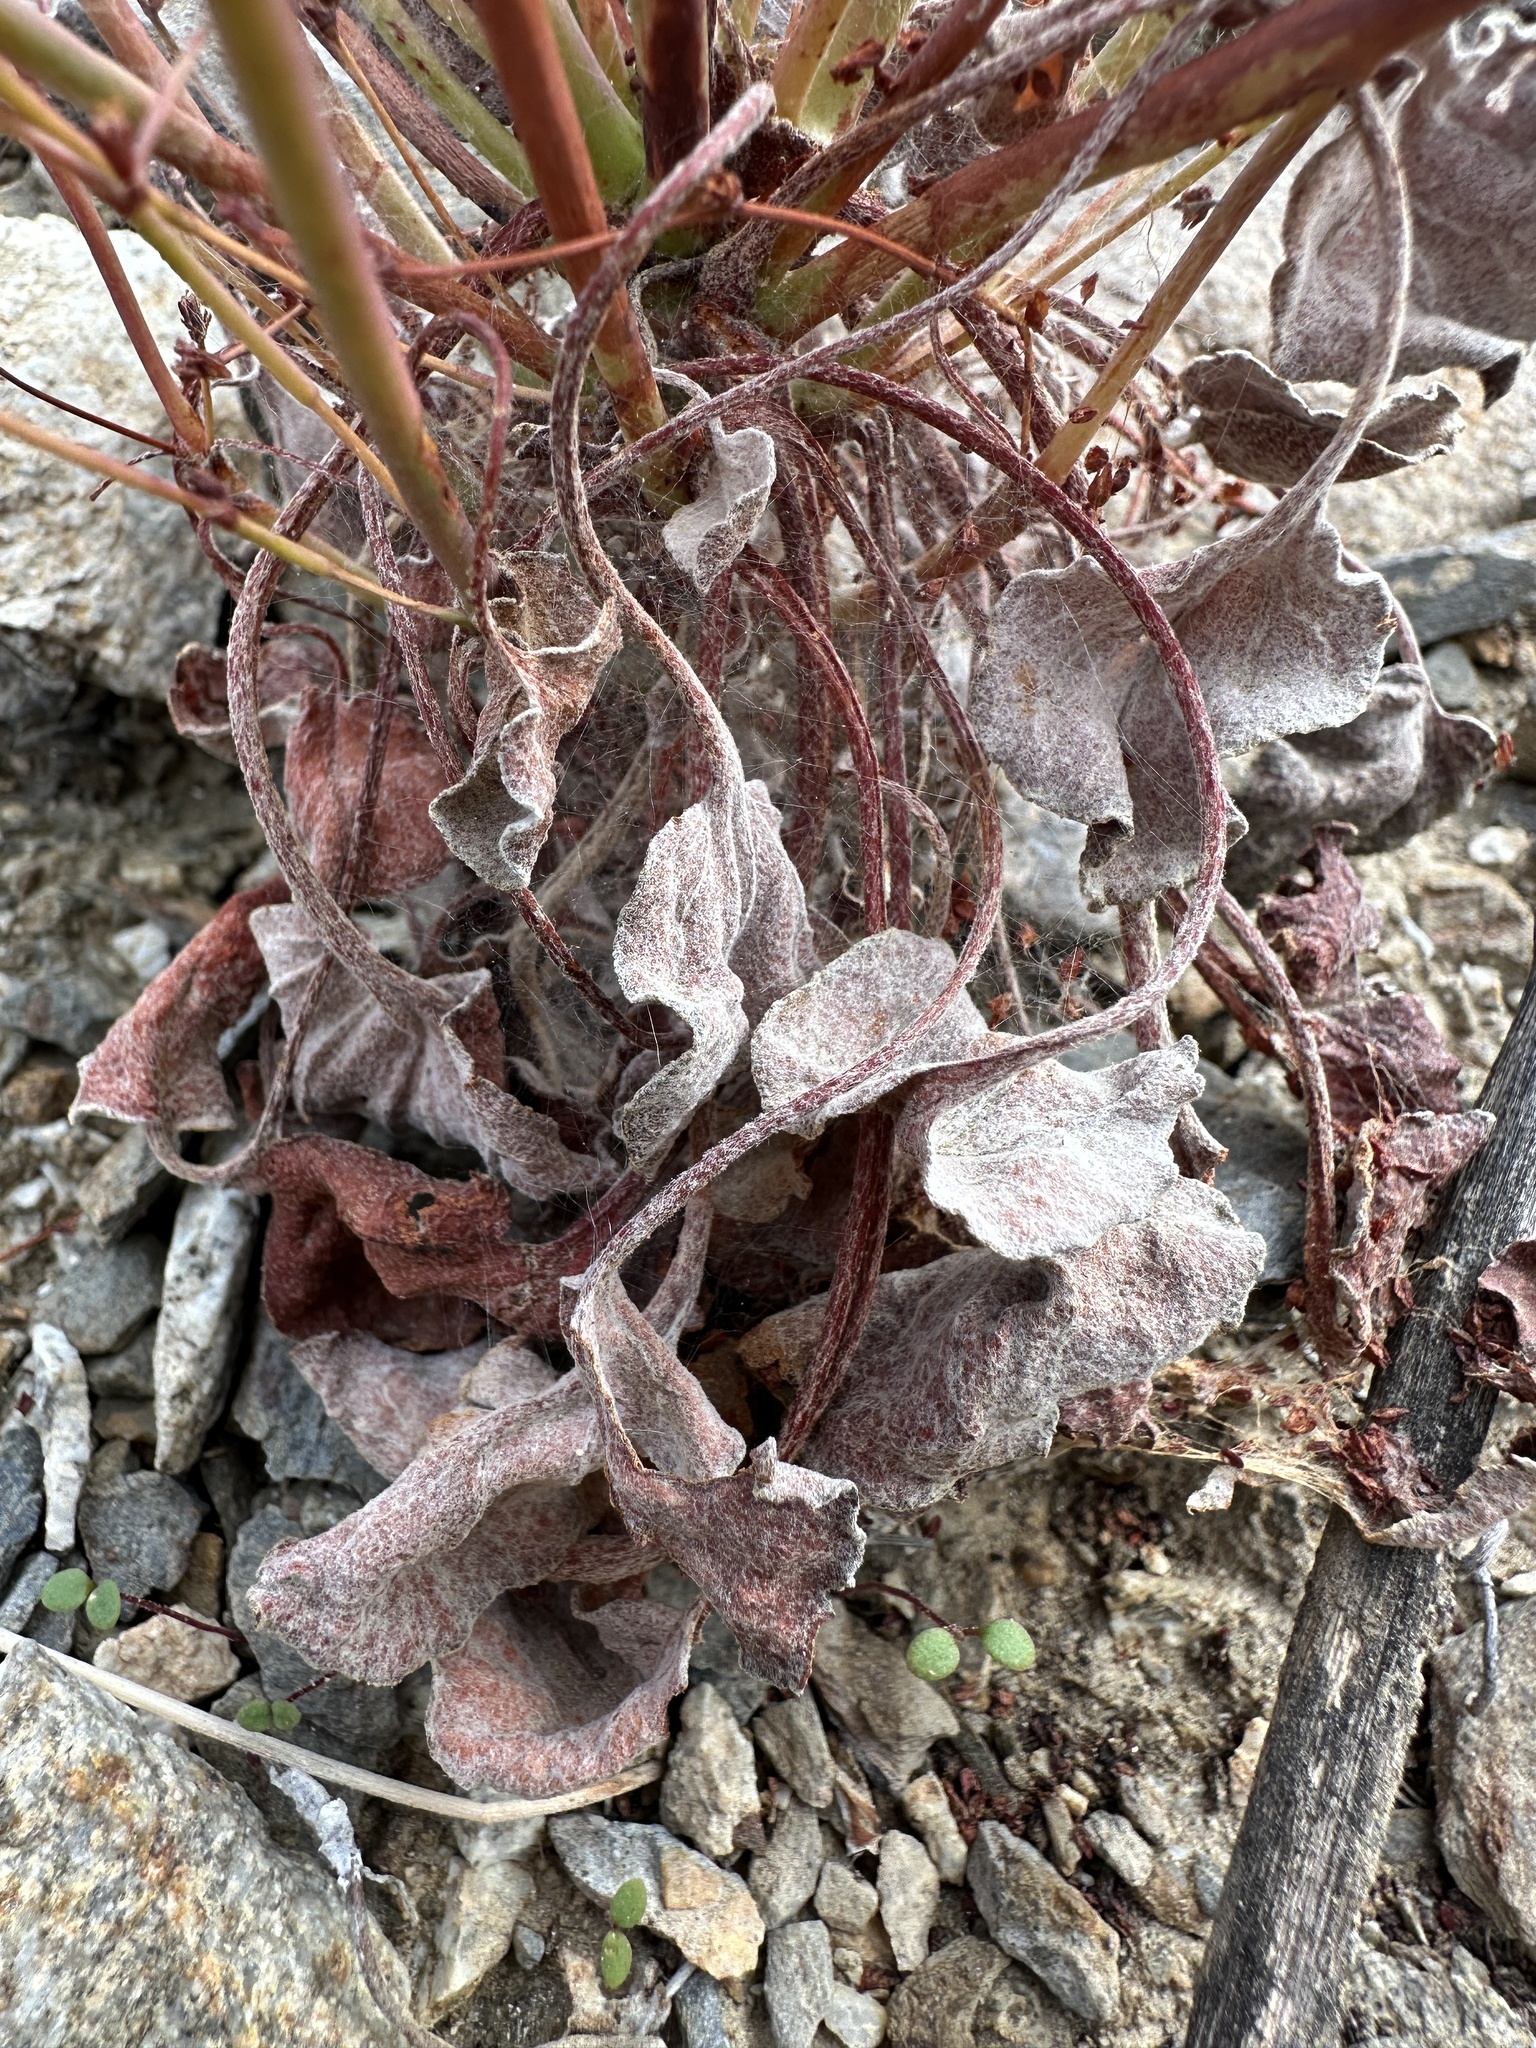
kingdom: Plantae
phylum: Tracheophyta
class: Magnoliopsida
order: Caryophyllales
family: Polygonaceae
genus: Eriogonum
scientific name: Eriogonum hoffmannii
